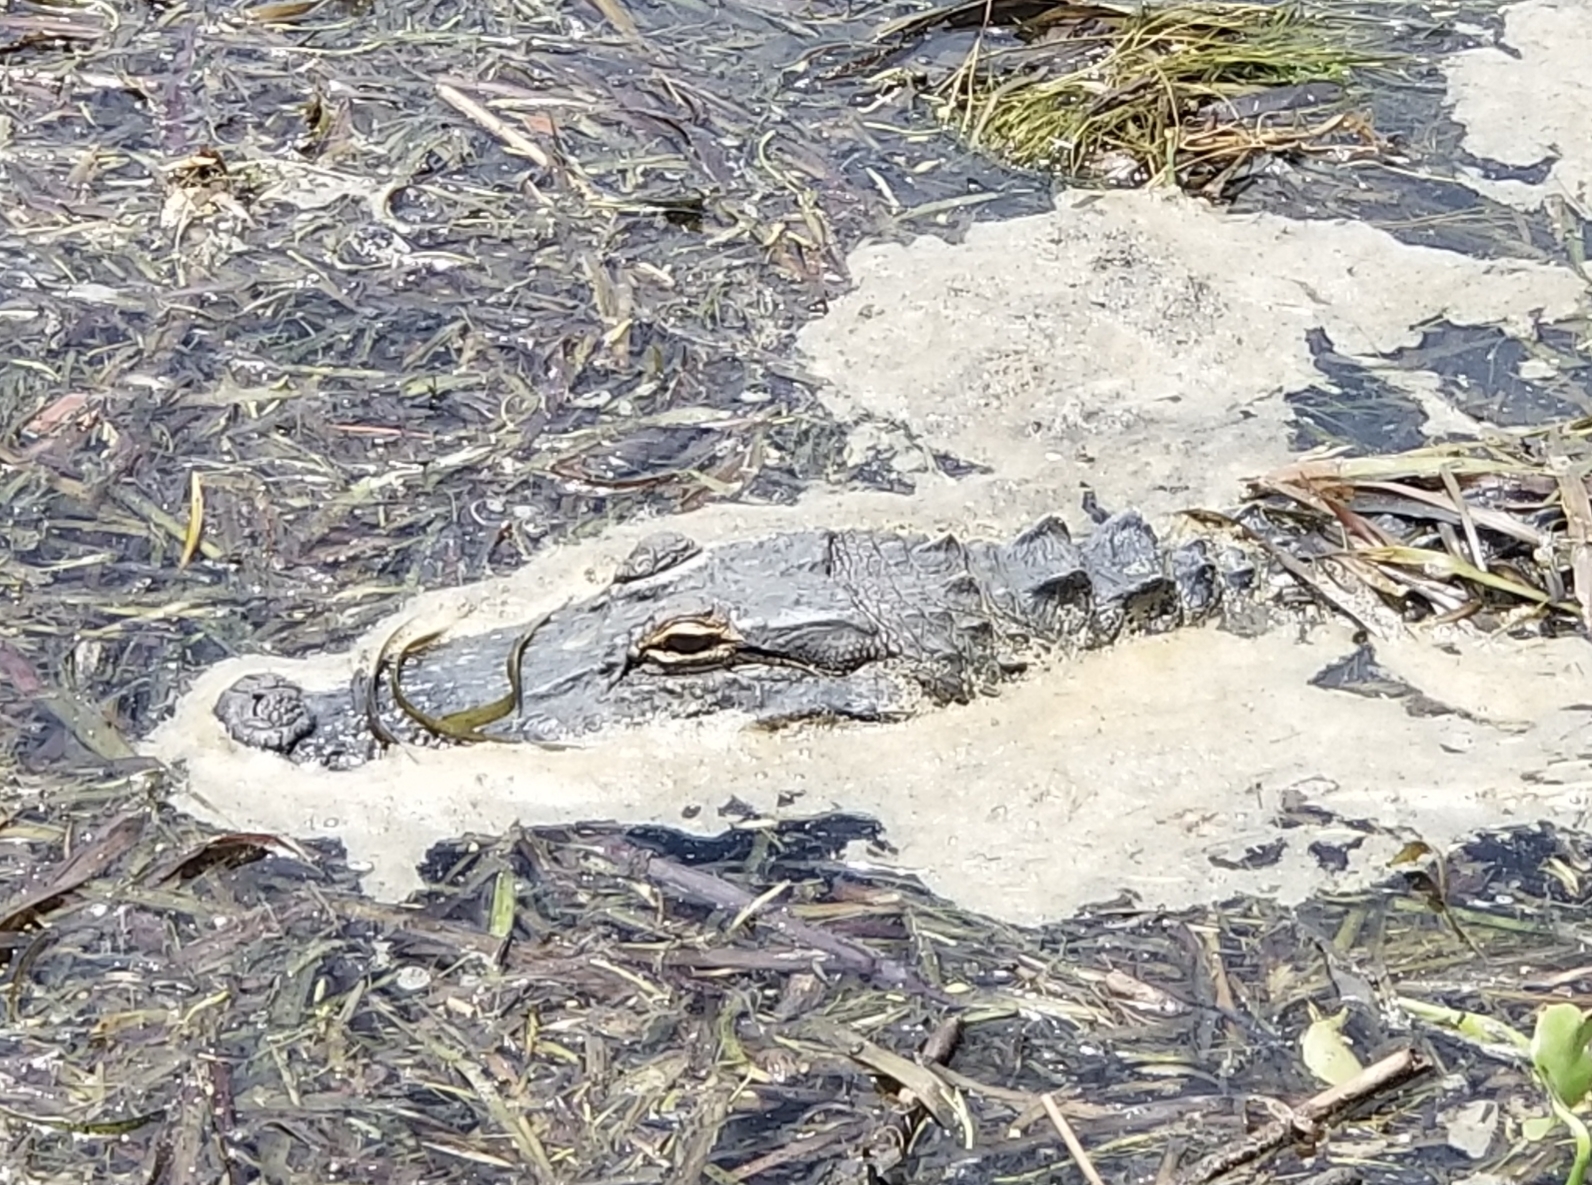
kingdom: Animalia
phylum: Chordata
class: Crocodylia
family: Alligatoridae
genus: Alligator
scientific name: Alligator mississippiensis
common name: American alligator
